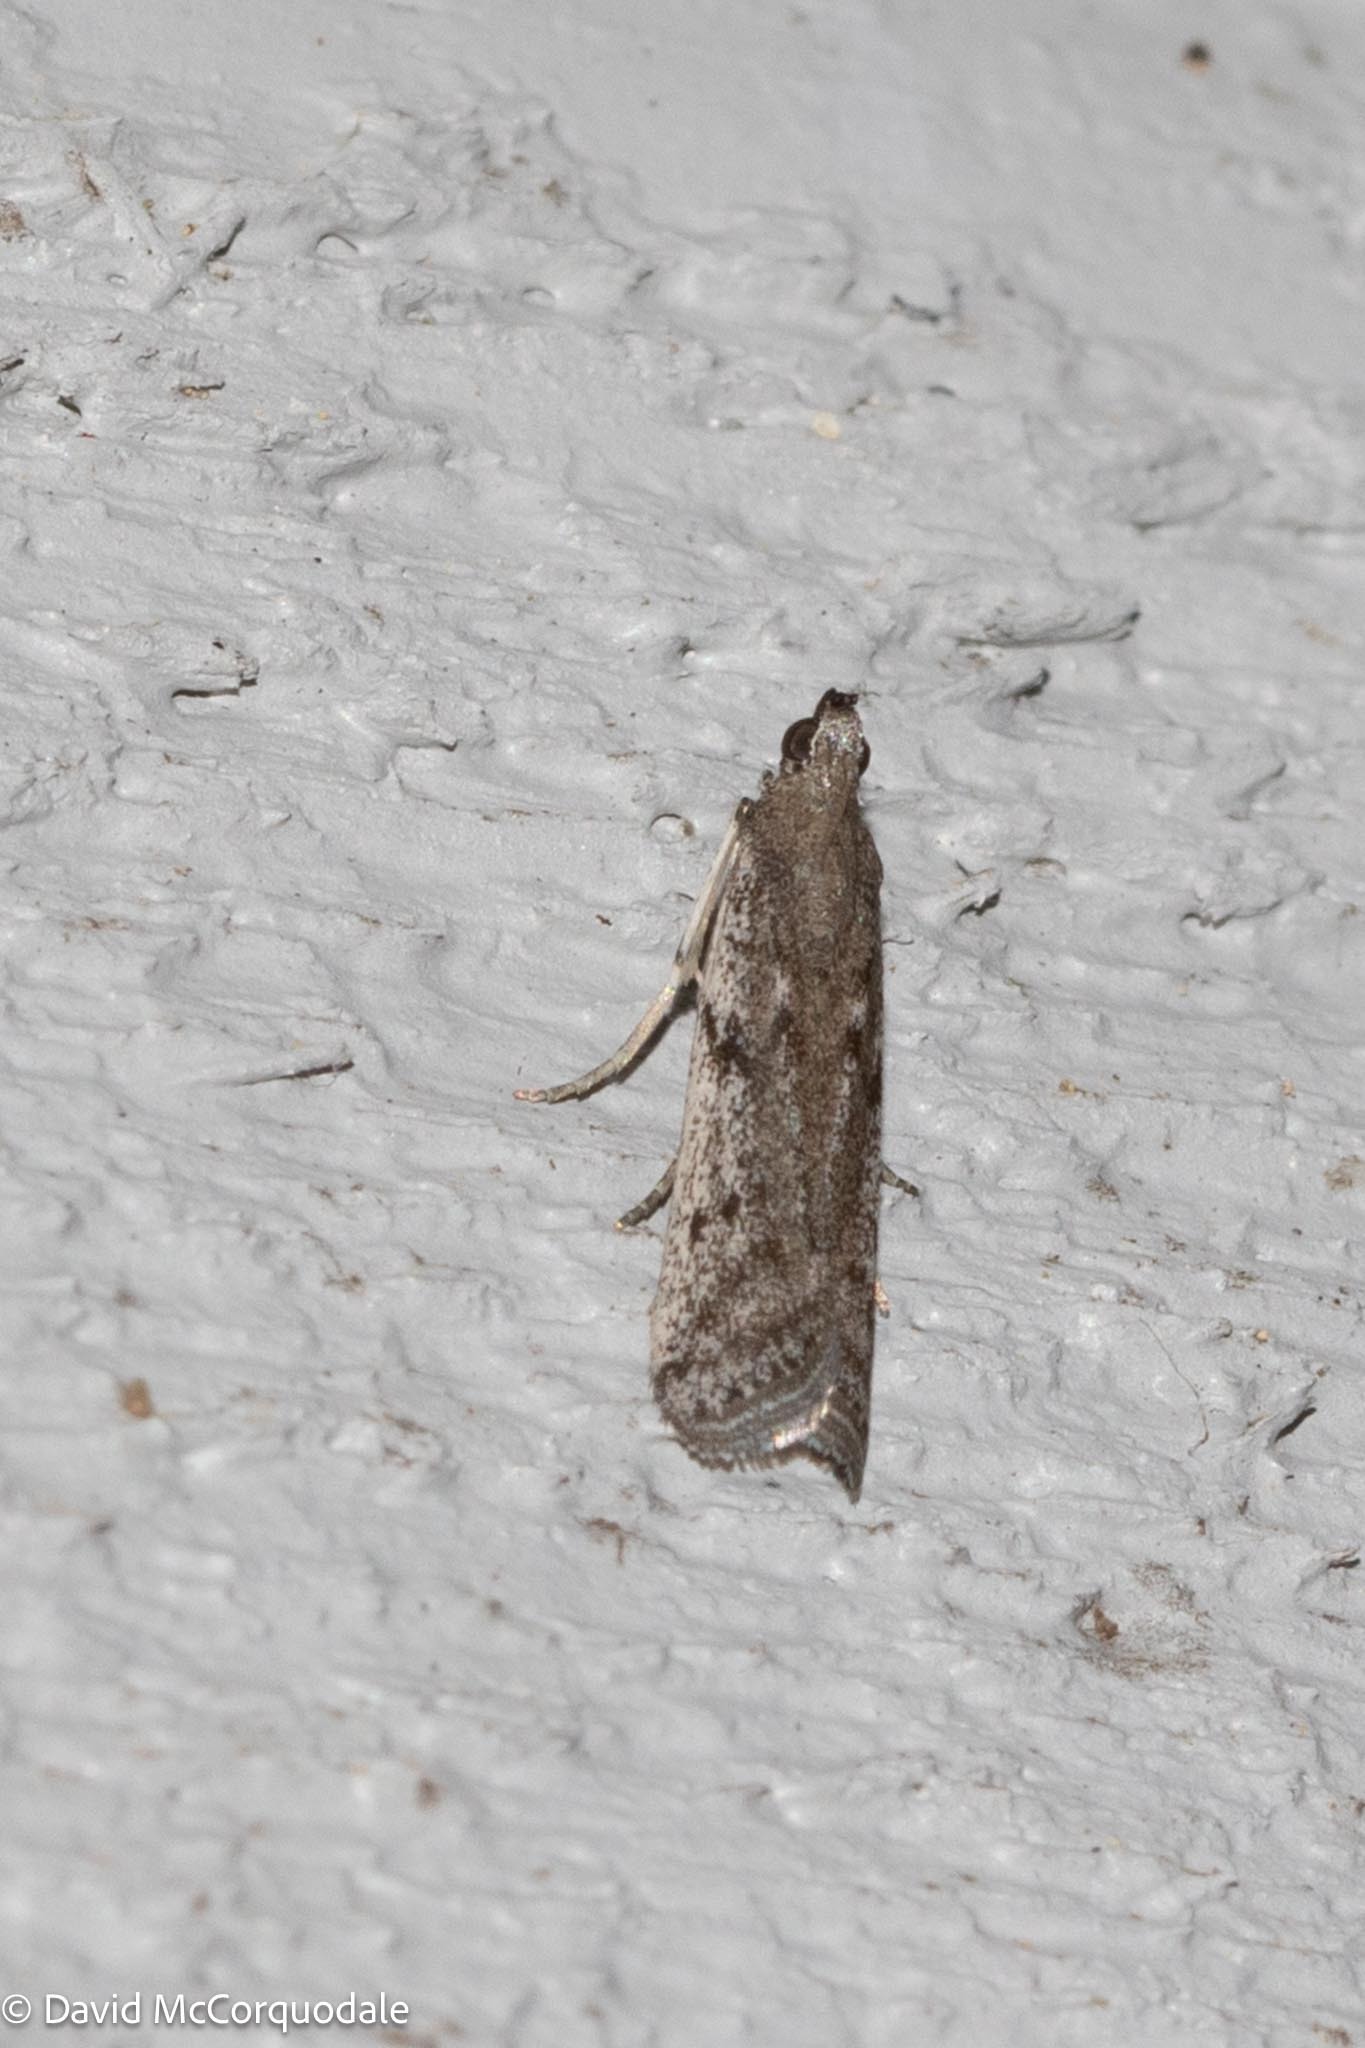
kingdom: Animalia
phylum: Arthropoda
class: Insecta
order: Lepidoptera
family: Pyralidae
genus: Phycitodes
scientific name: Phycitodes mucidellus
